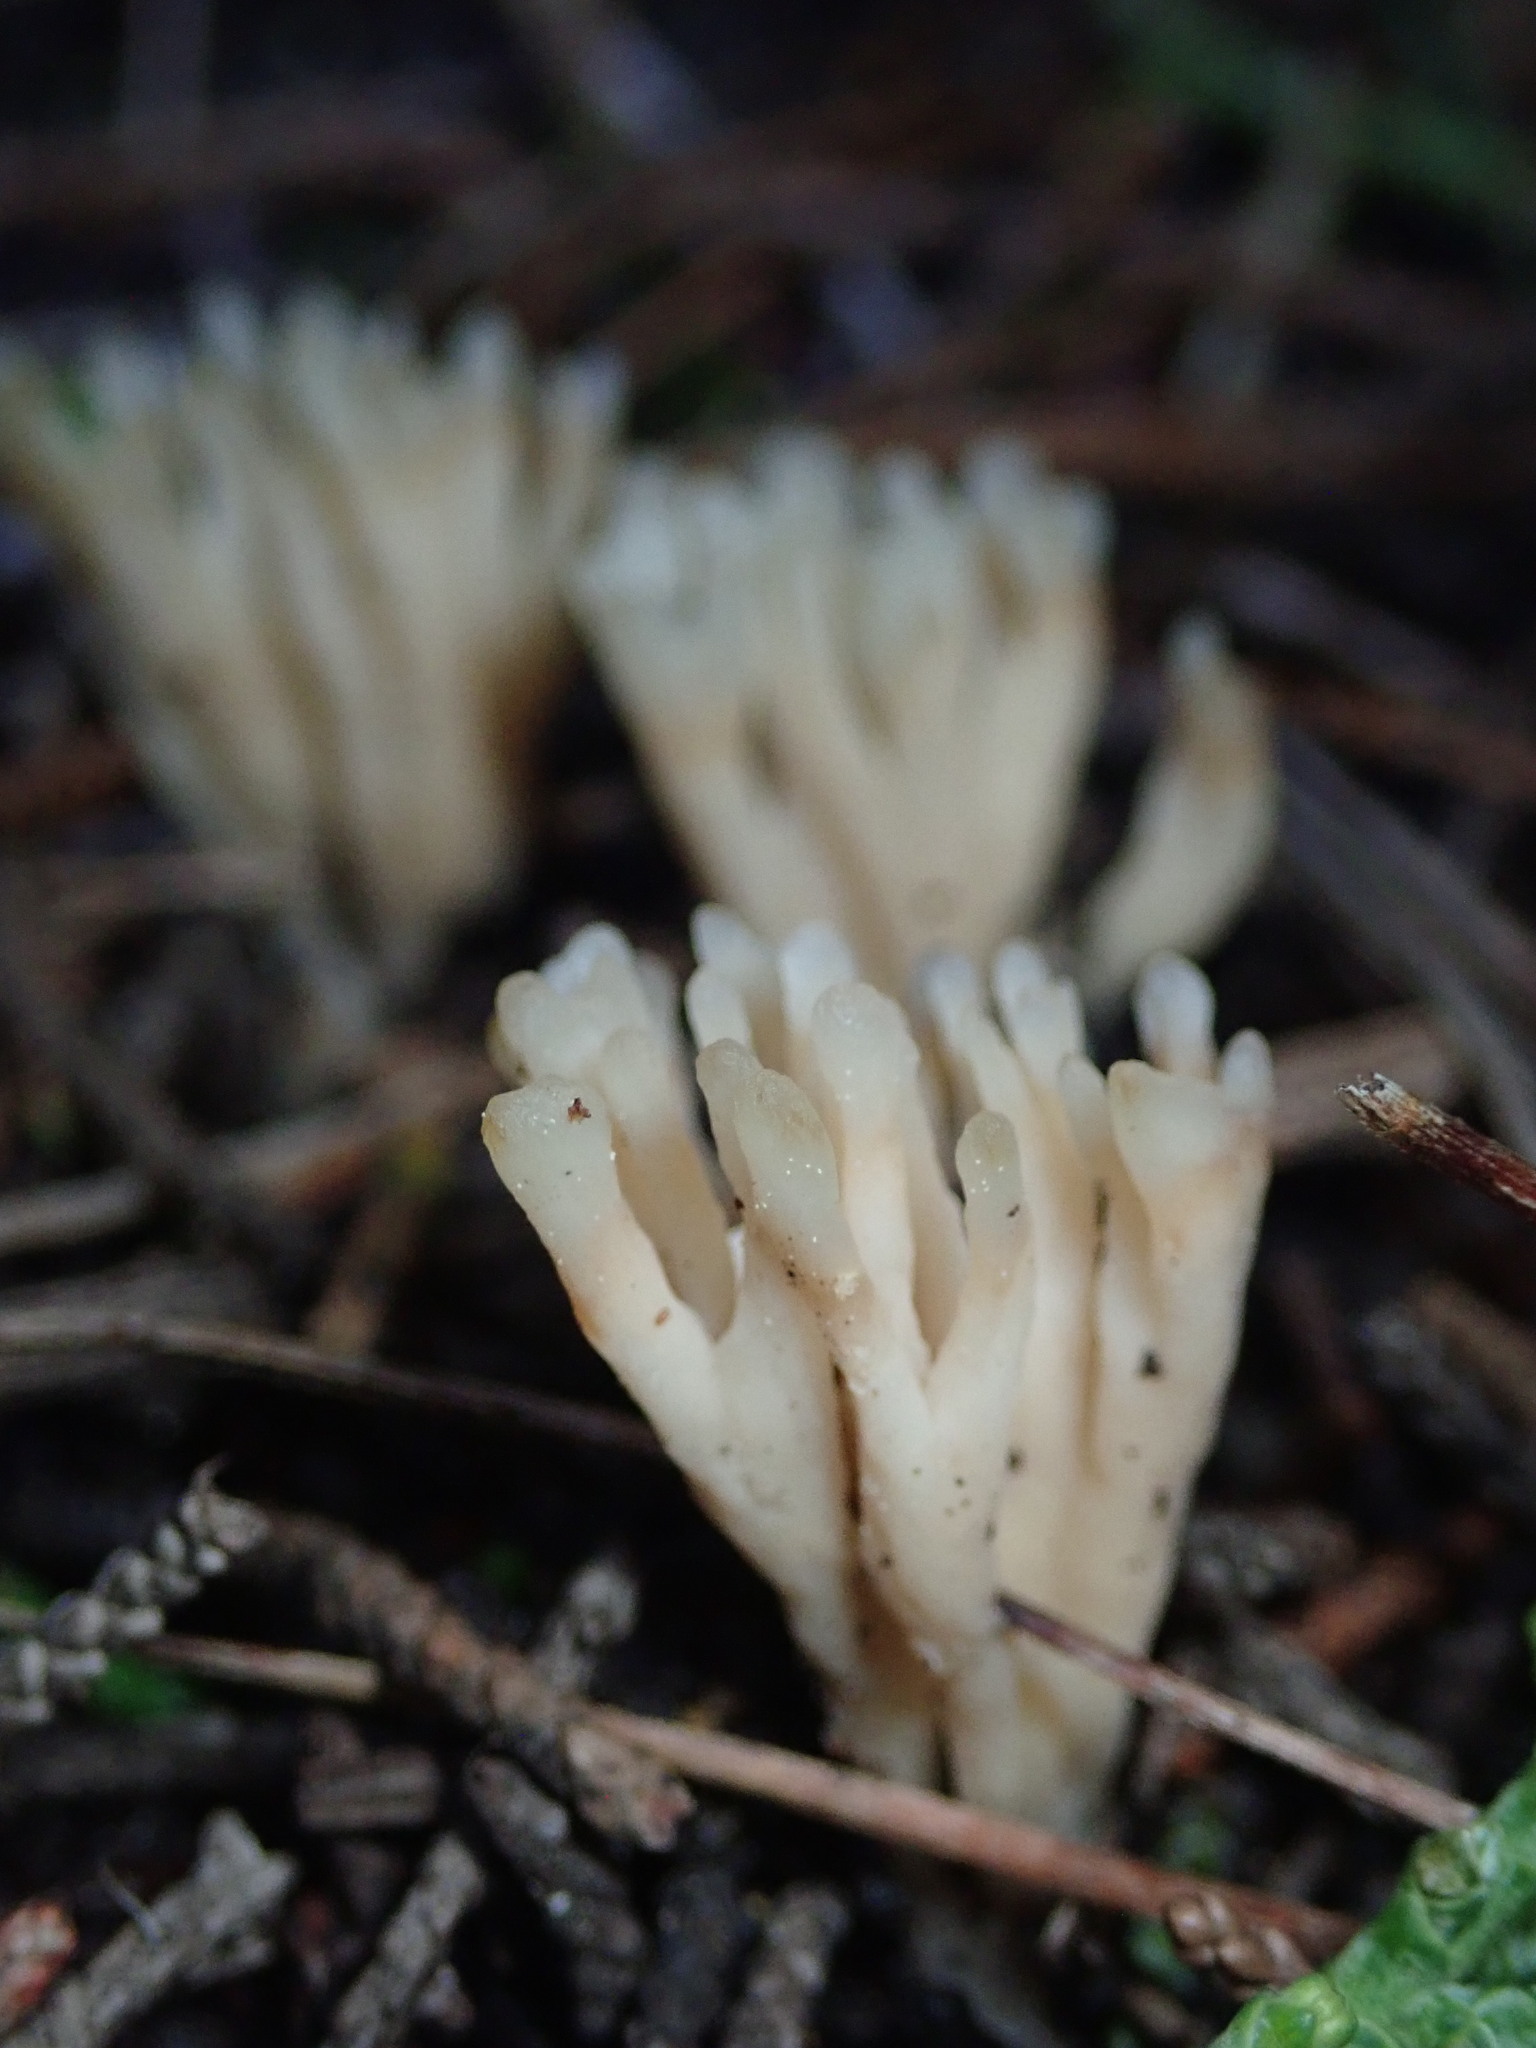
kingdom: Fungi
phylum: Basidiomycota
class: Agaricomycetes
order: Tremellodendropsidales
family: Tremellodendropsidaceae
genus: Tremellodendropsis
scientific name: Tremellodendropsis tuberosa
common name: Ashen coral
